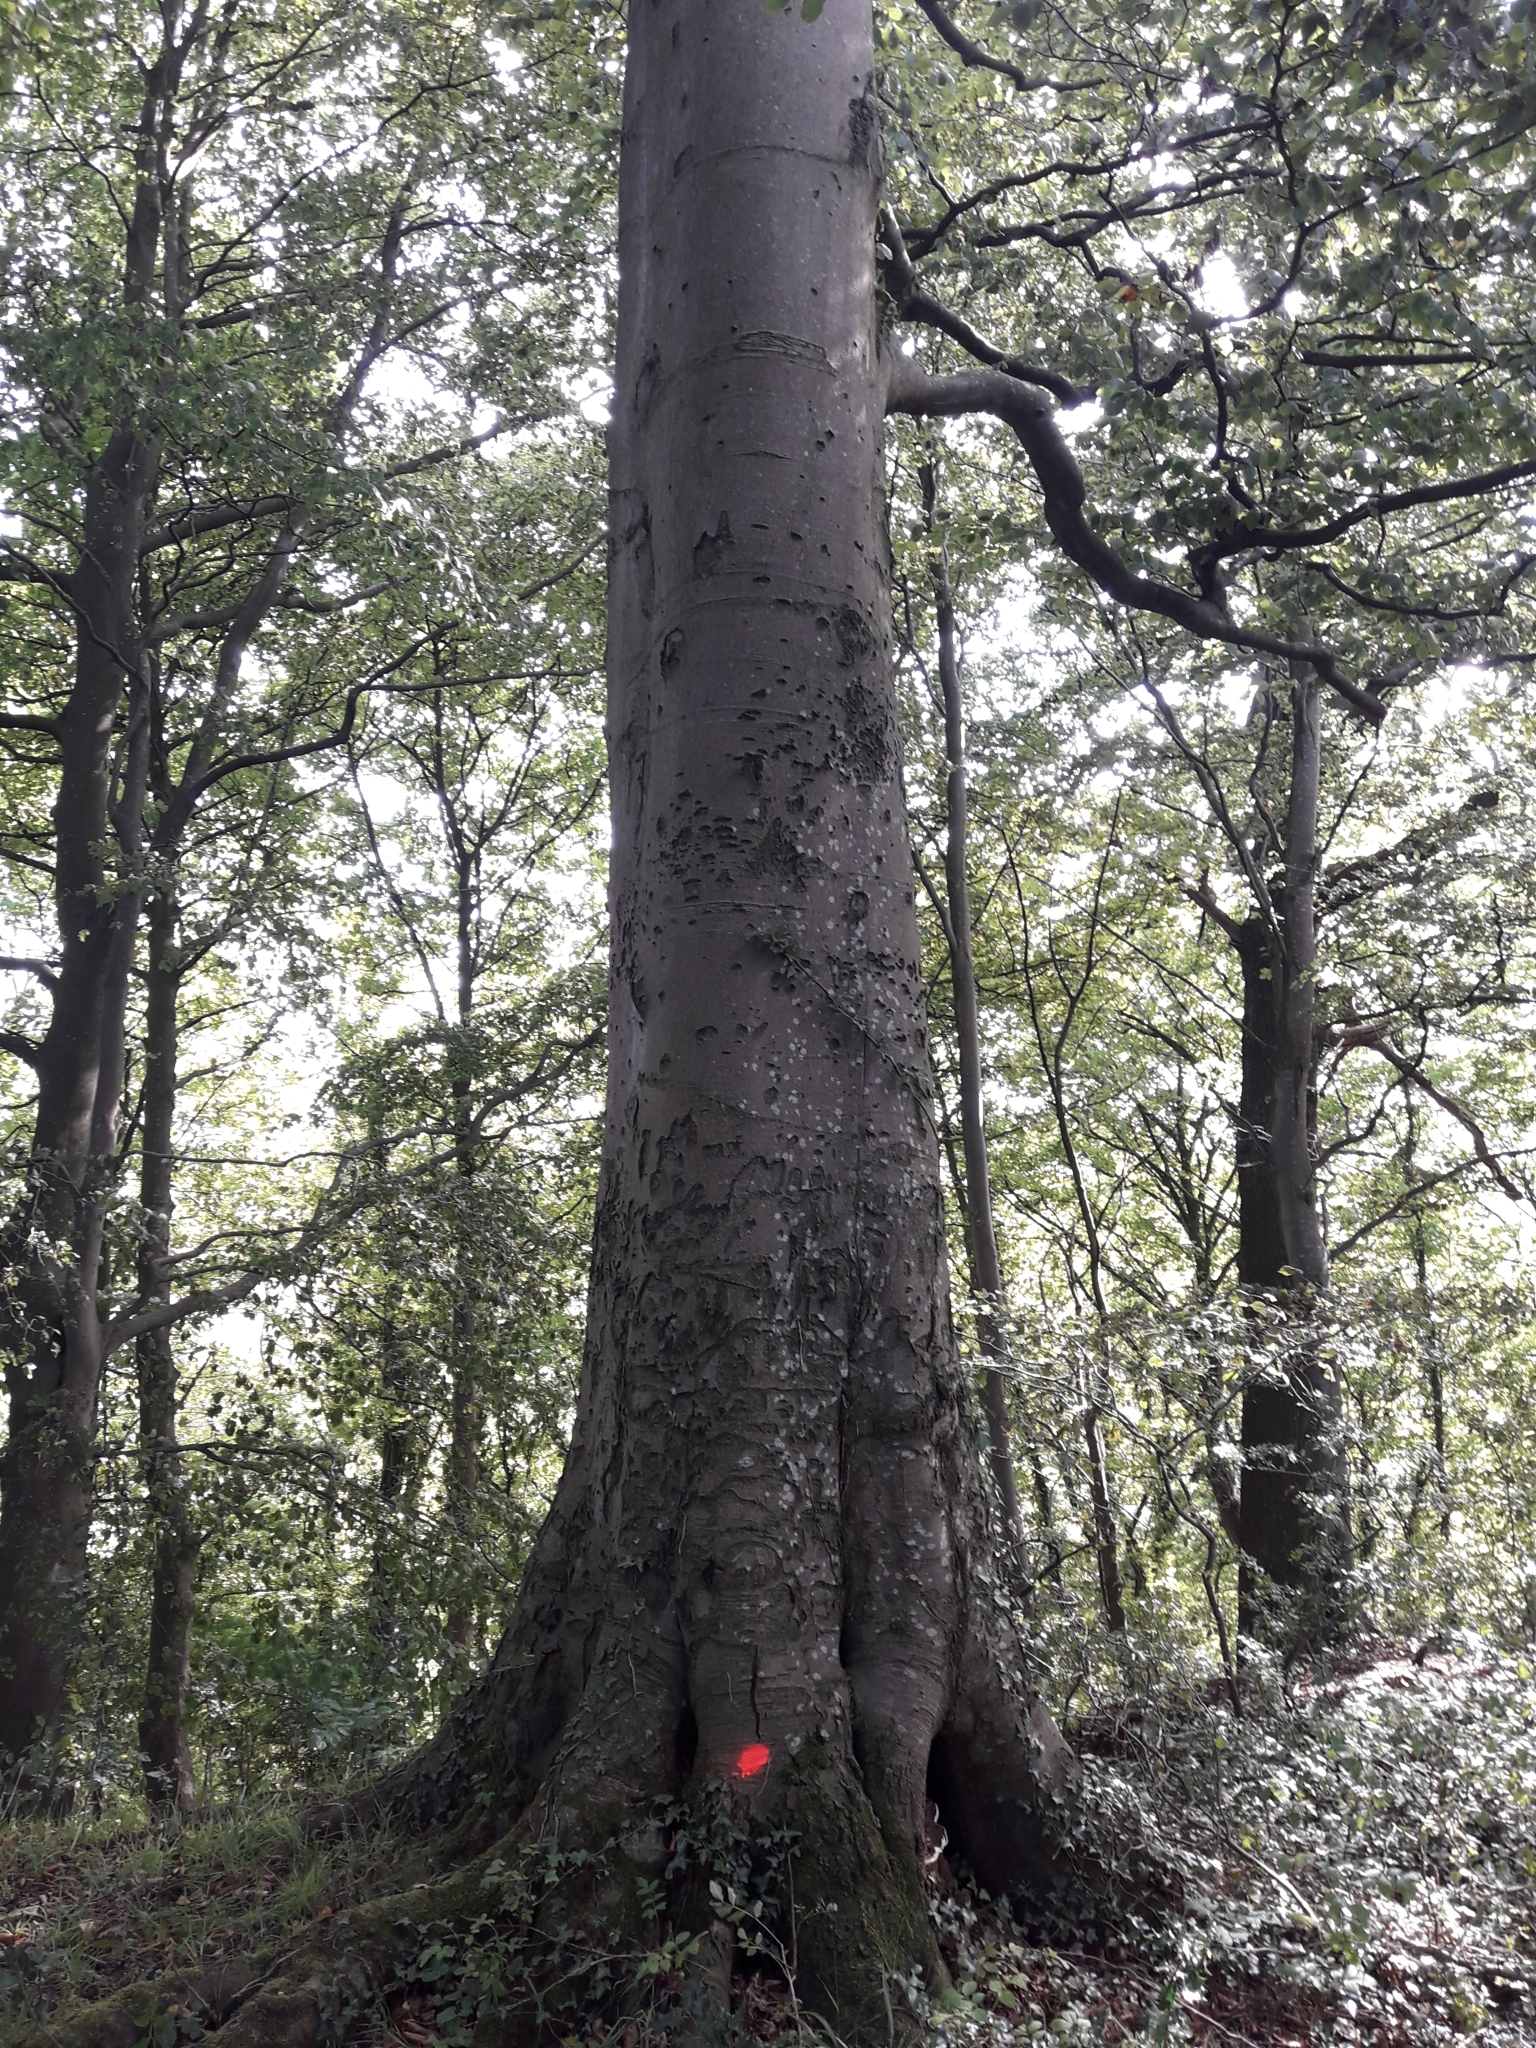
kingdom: Plantae
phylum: Tracheophyta
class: Magnoliopsida
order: Fagales
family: Fagaceae
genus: Fagus
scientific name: Fagus sylvatica
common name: Beech
